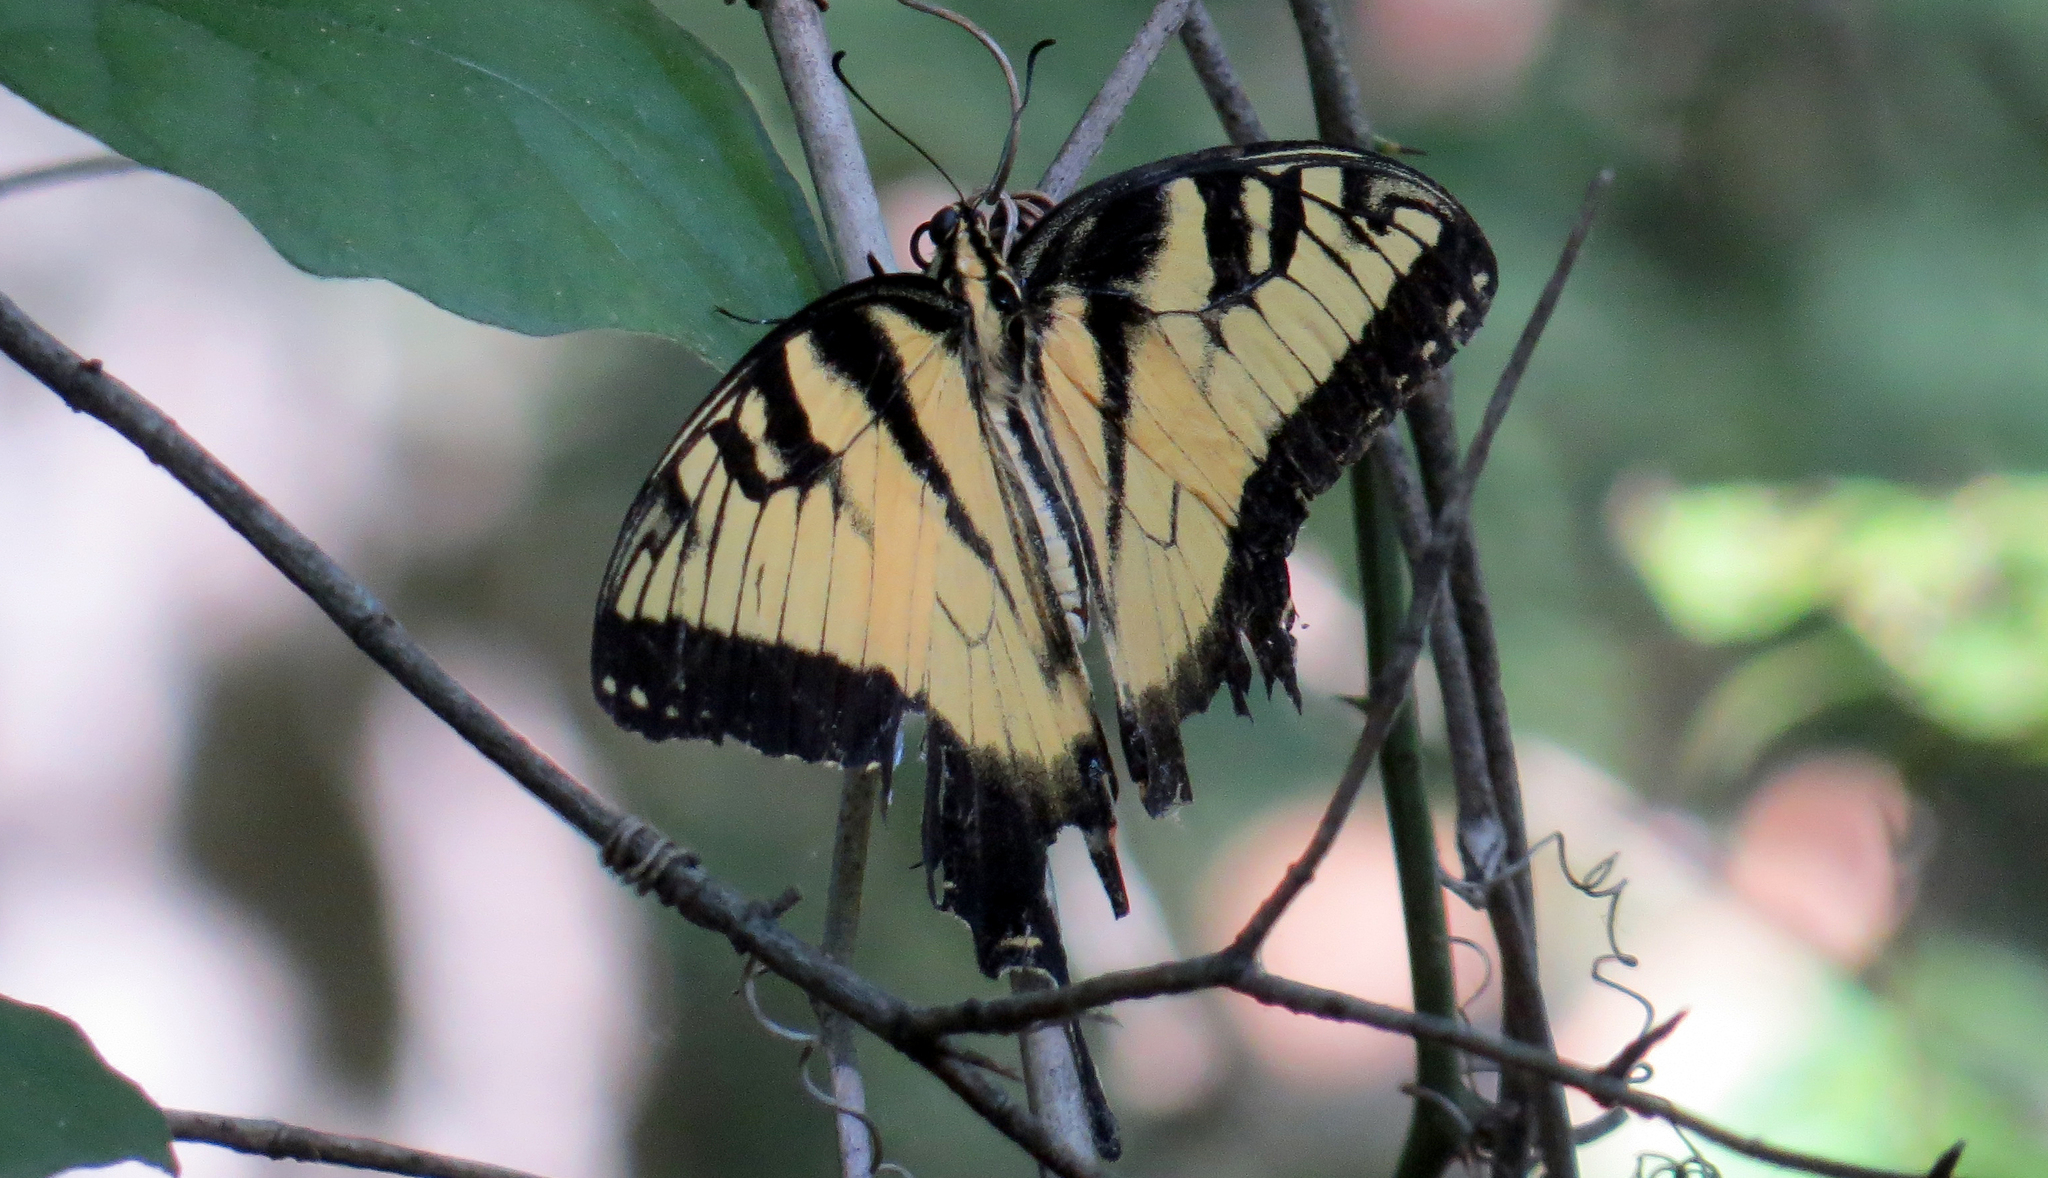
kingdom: Animalia
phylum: Arthropoda
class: Insecta
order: Lepidoptera
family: Papilionidae
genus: Papilio
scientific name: Papilio glaucus
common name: Tiger swallowtail
